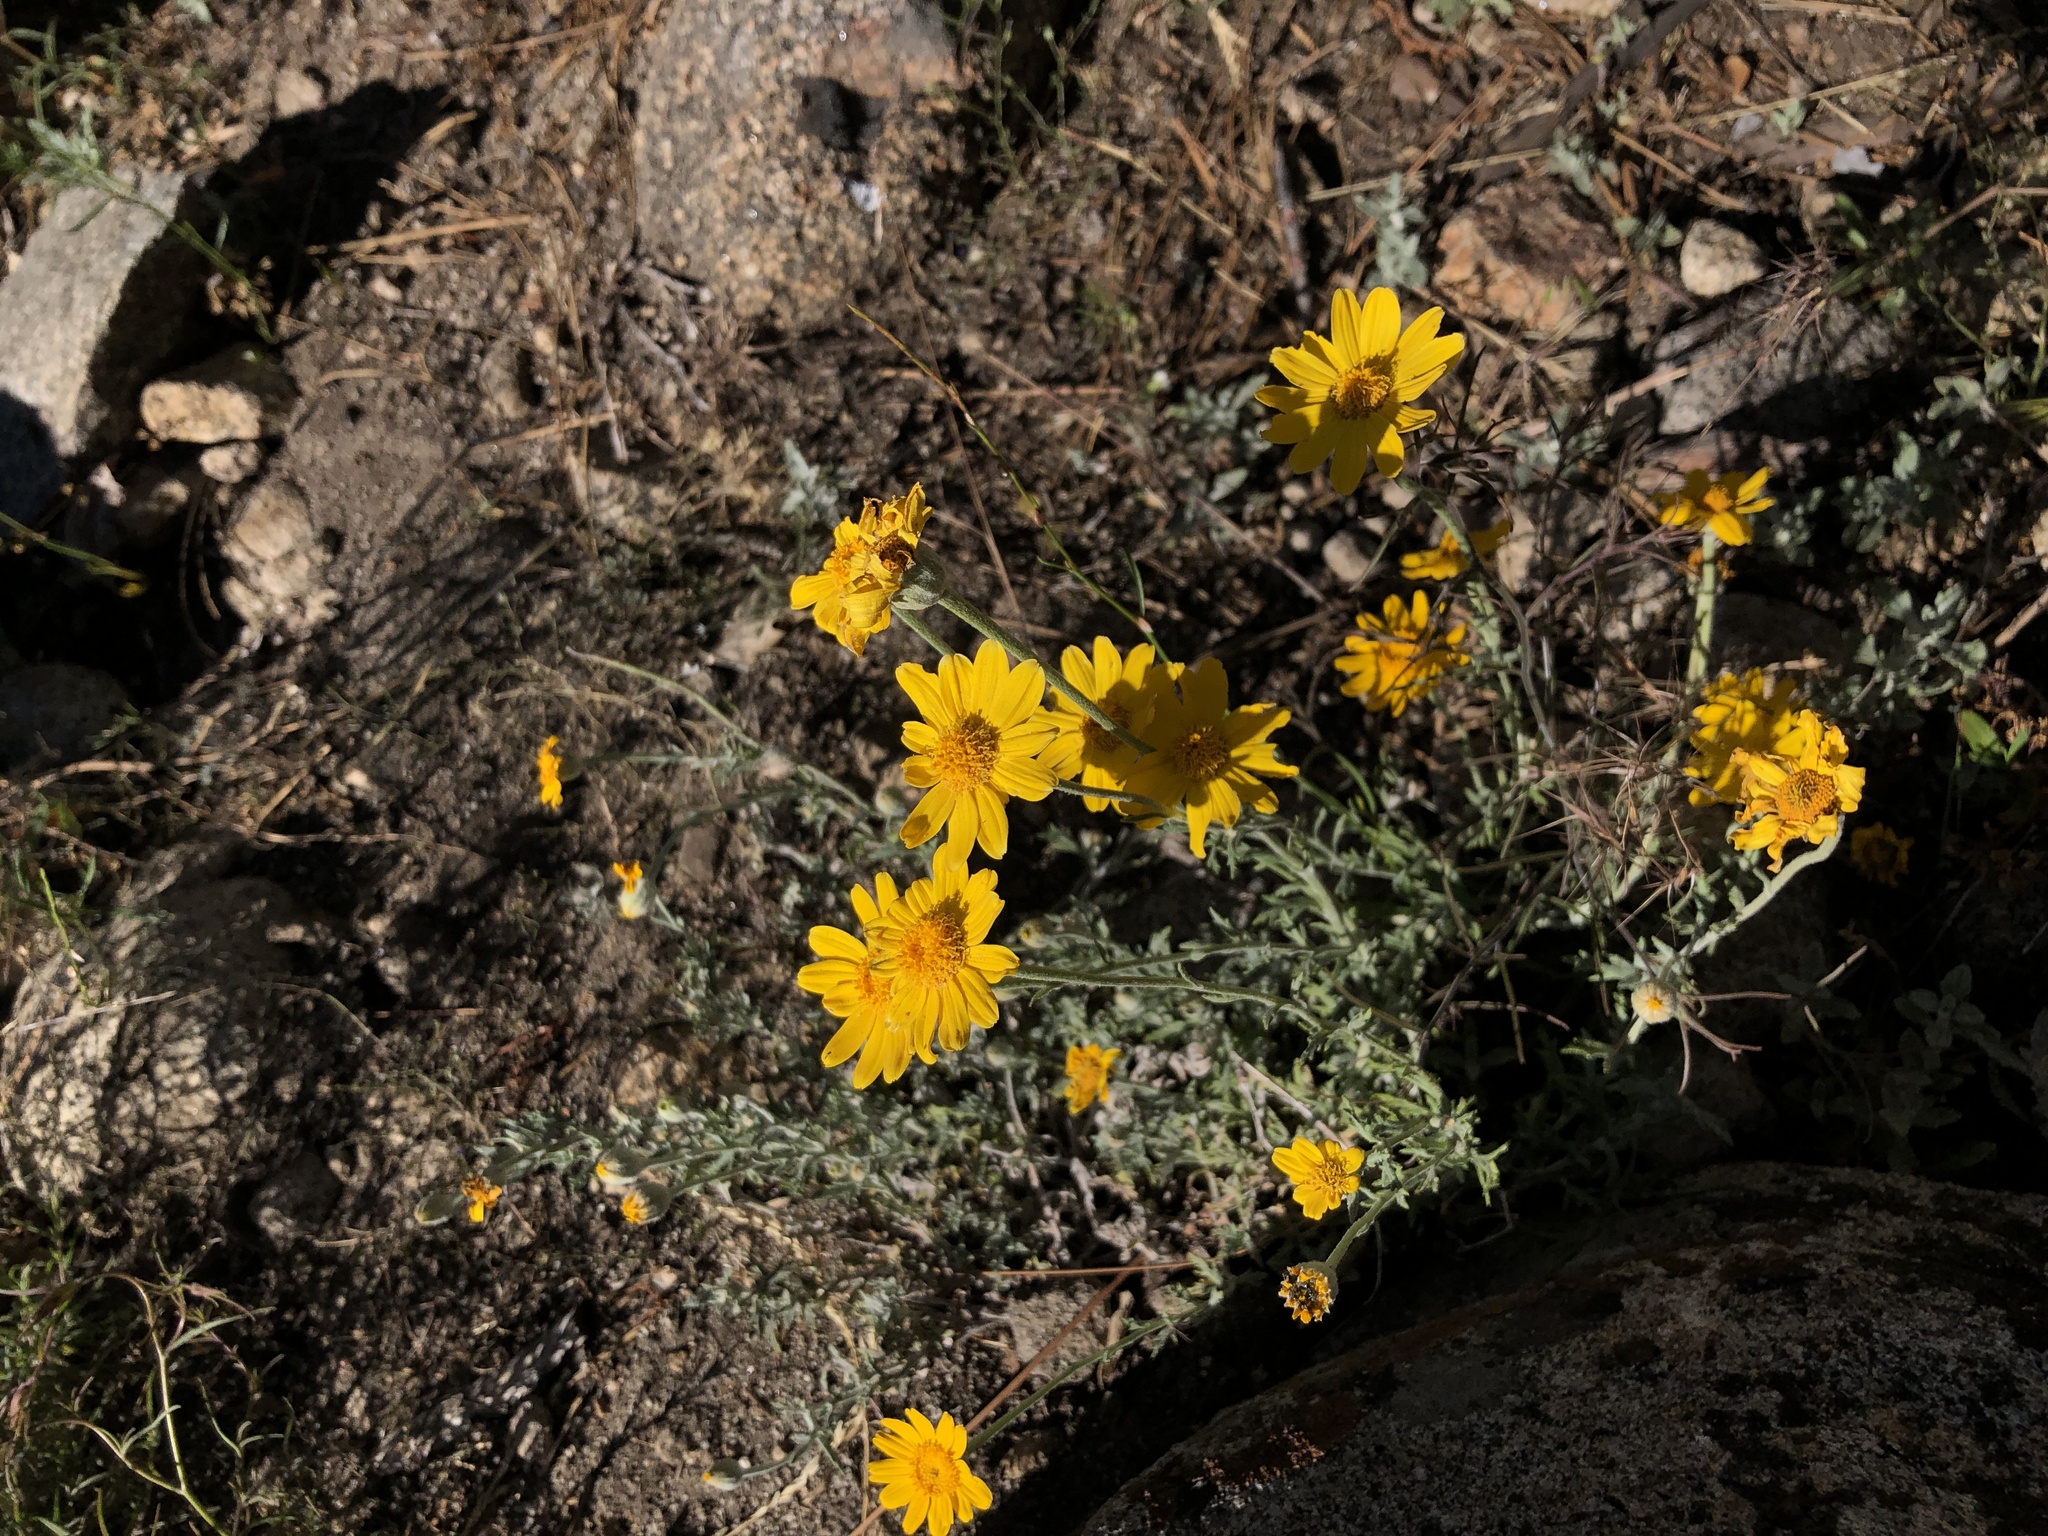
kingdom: Plantae
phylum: Tracheophyta
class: Magnoliopsida
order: Asterales
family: Asteraceae
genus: Eriophyllum
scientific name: Eriophyllum lanatum
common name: Common woolly-sunflower
